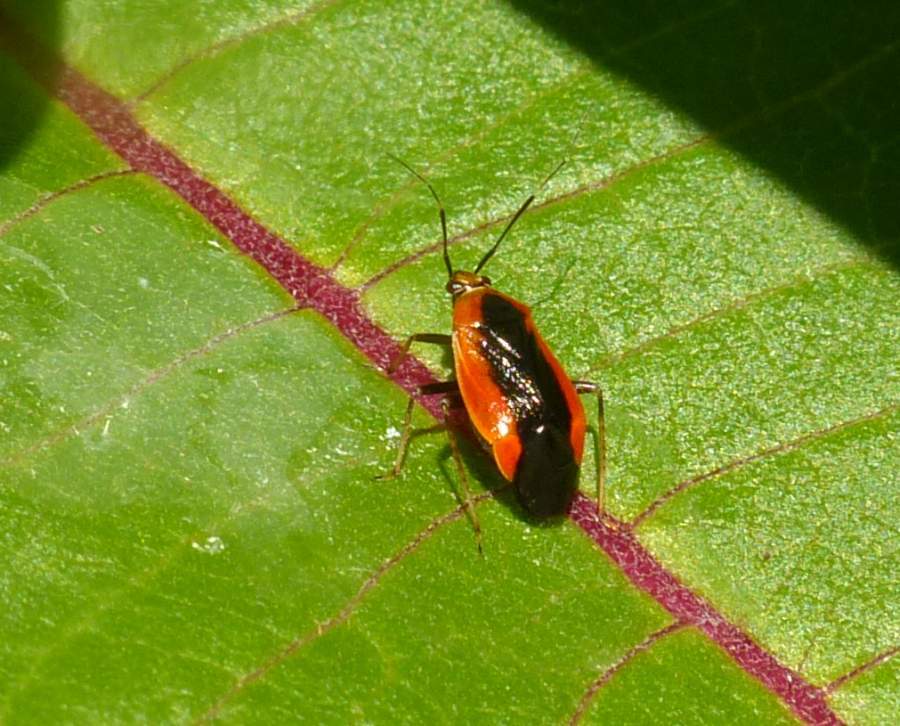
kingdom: Animalia
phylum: Arthropoda
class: Insecta
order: Hemiptera
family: Miridae
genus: Metriorrhynchomiris
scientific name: Metriorrhynchomiris dislocatus
